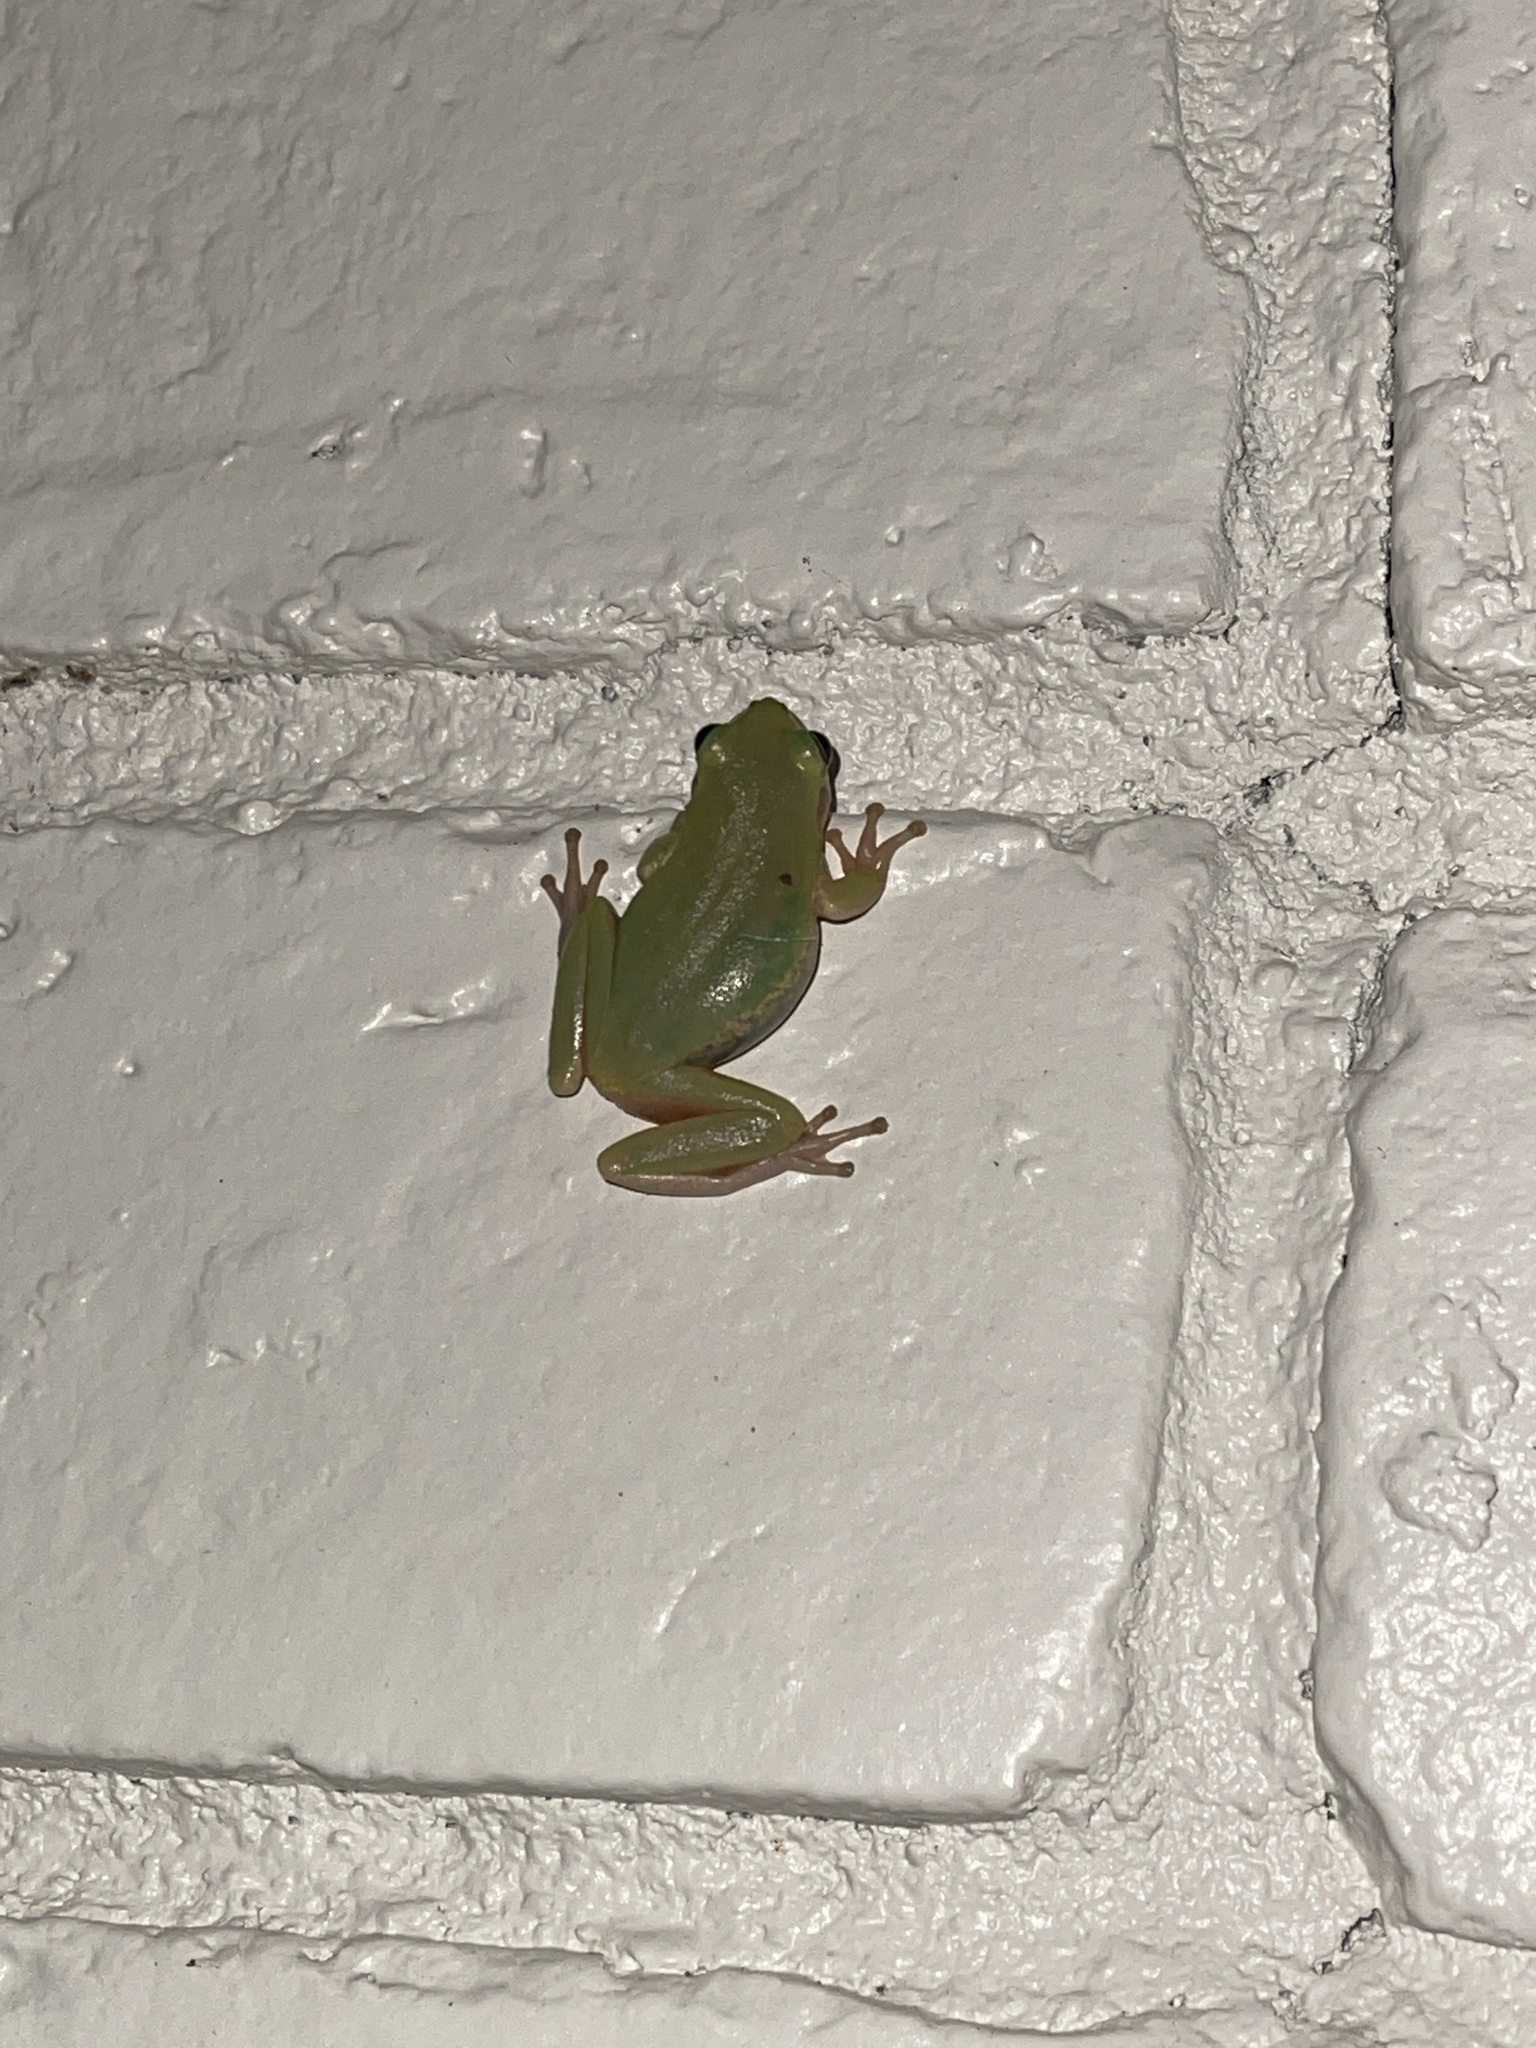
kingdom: Animalia
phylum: Chordata
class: Amphibia
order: Anura
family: Hylidae
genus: Dryophytes
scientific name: Dryophytes squirellus
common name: Squirrel treefrog
